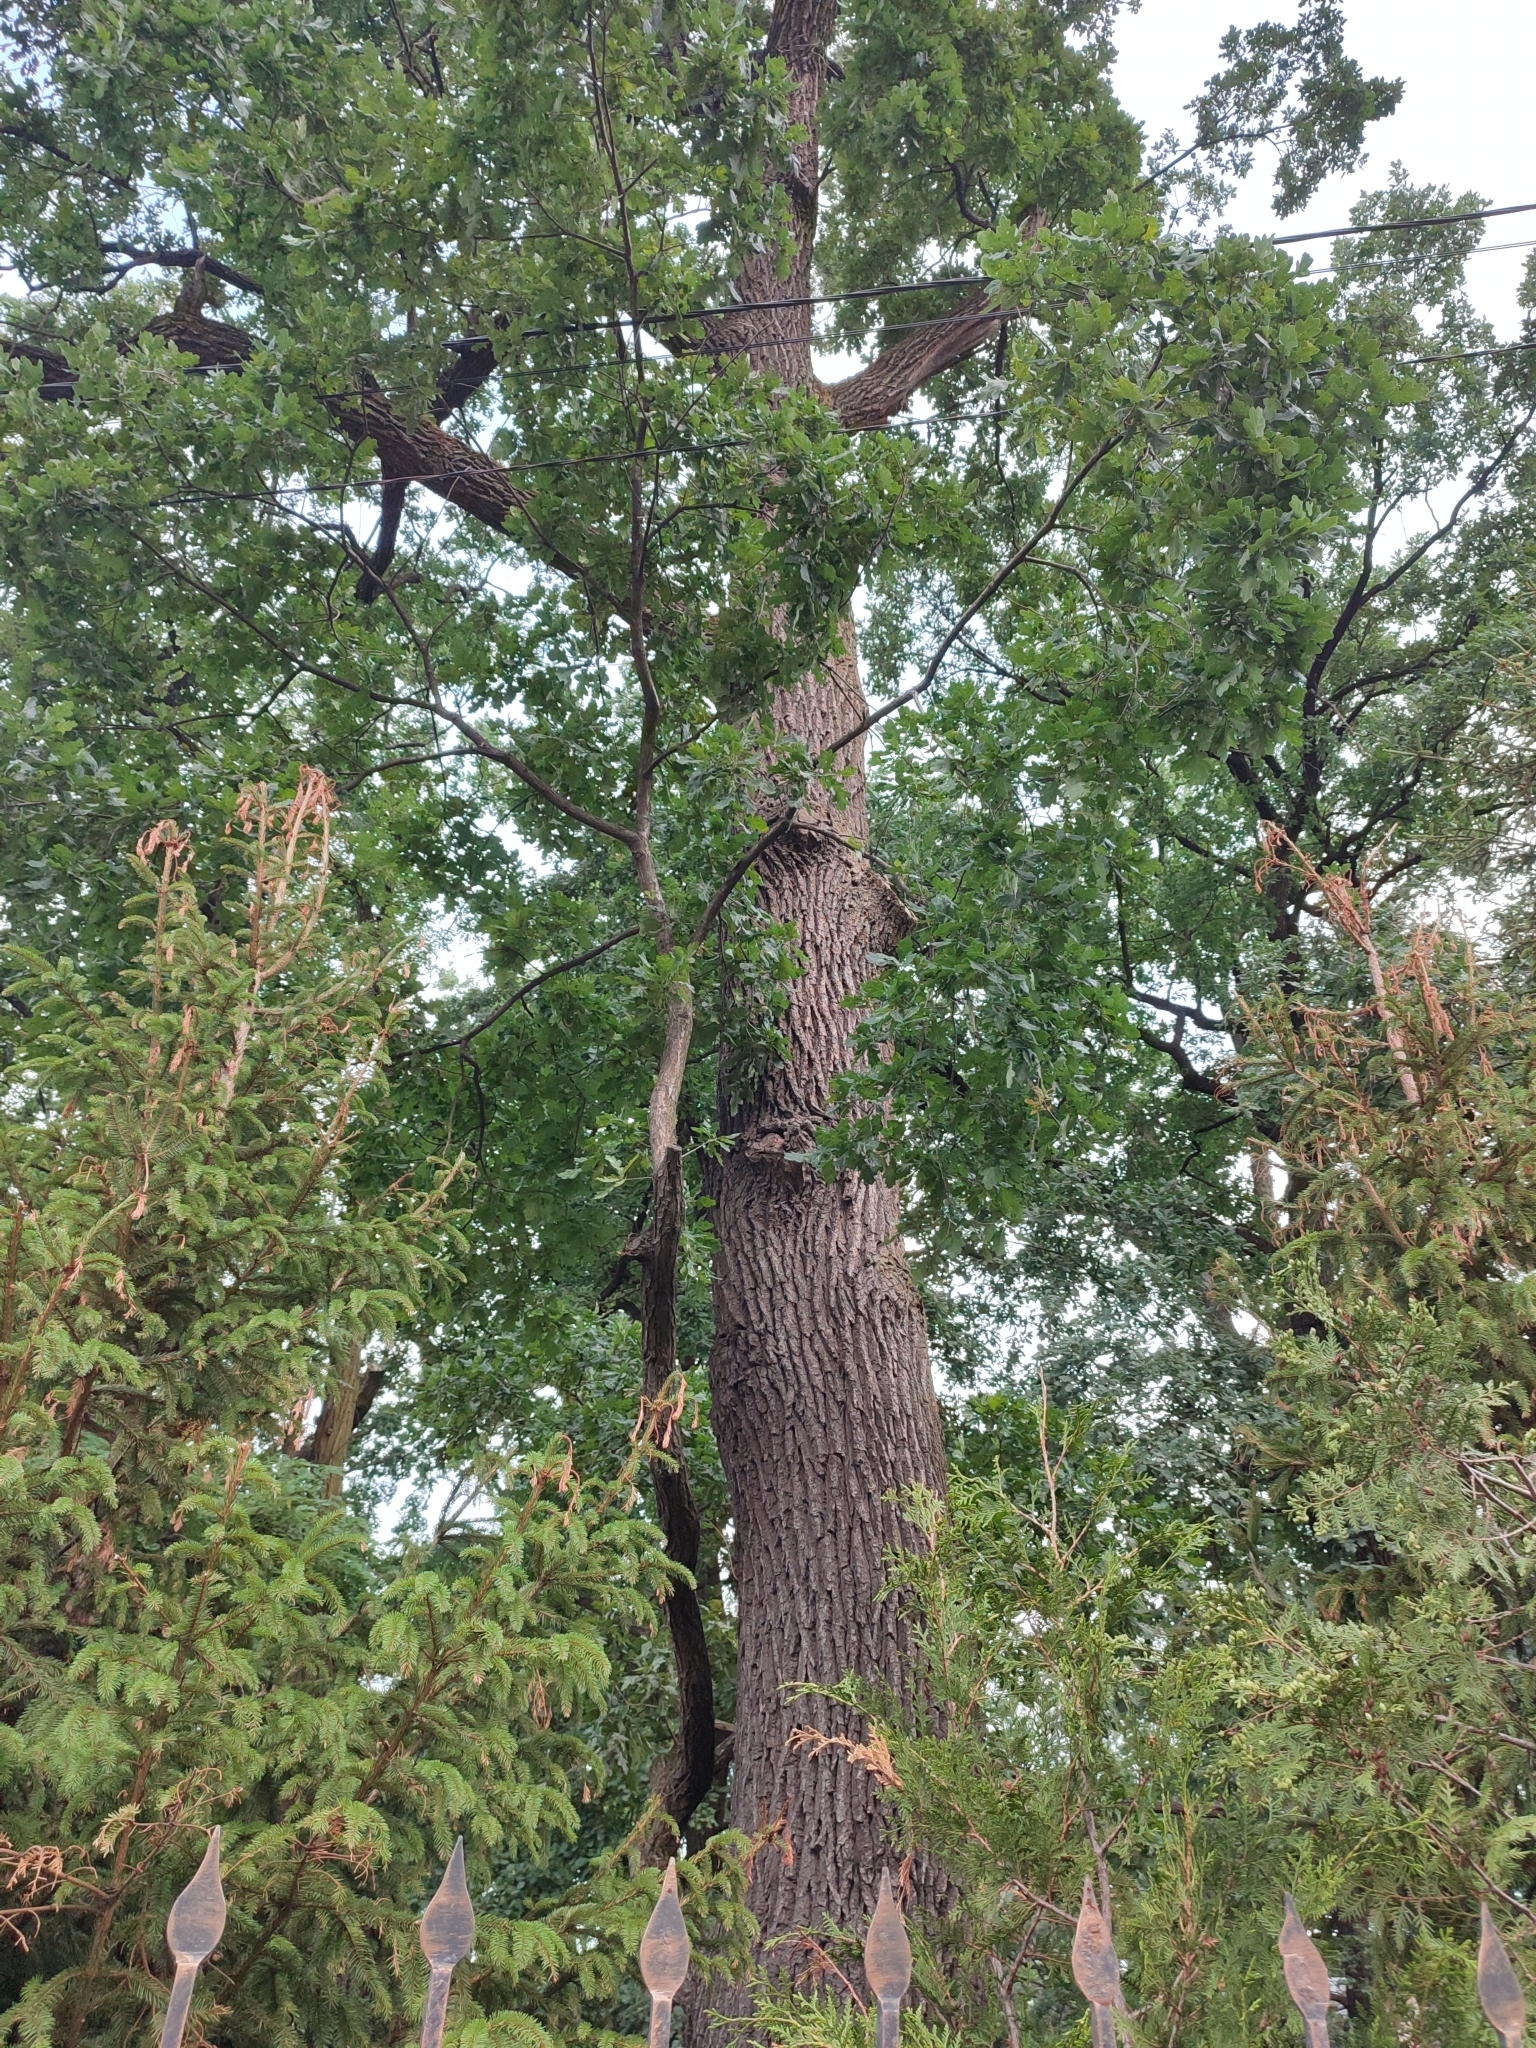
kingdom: Plantae
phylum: Tracheophyta
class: Magnoliopsida
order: Fagales
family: Fagaceae
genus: Quercus
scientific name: Quercus robur
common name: Pedunculate oak
